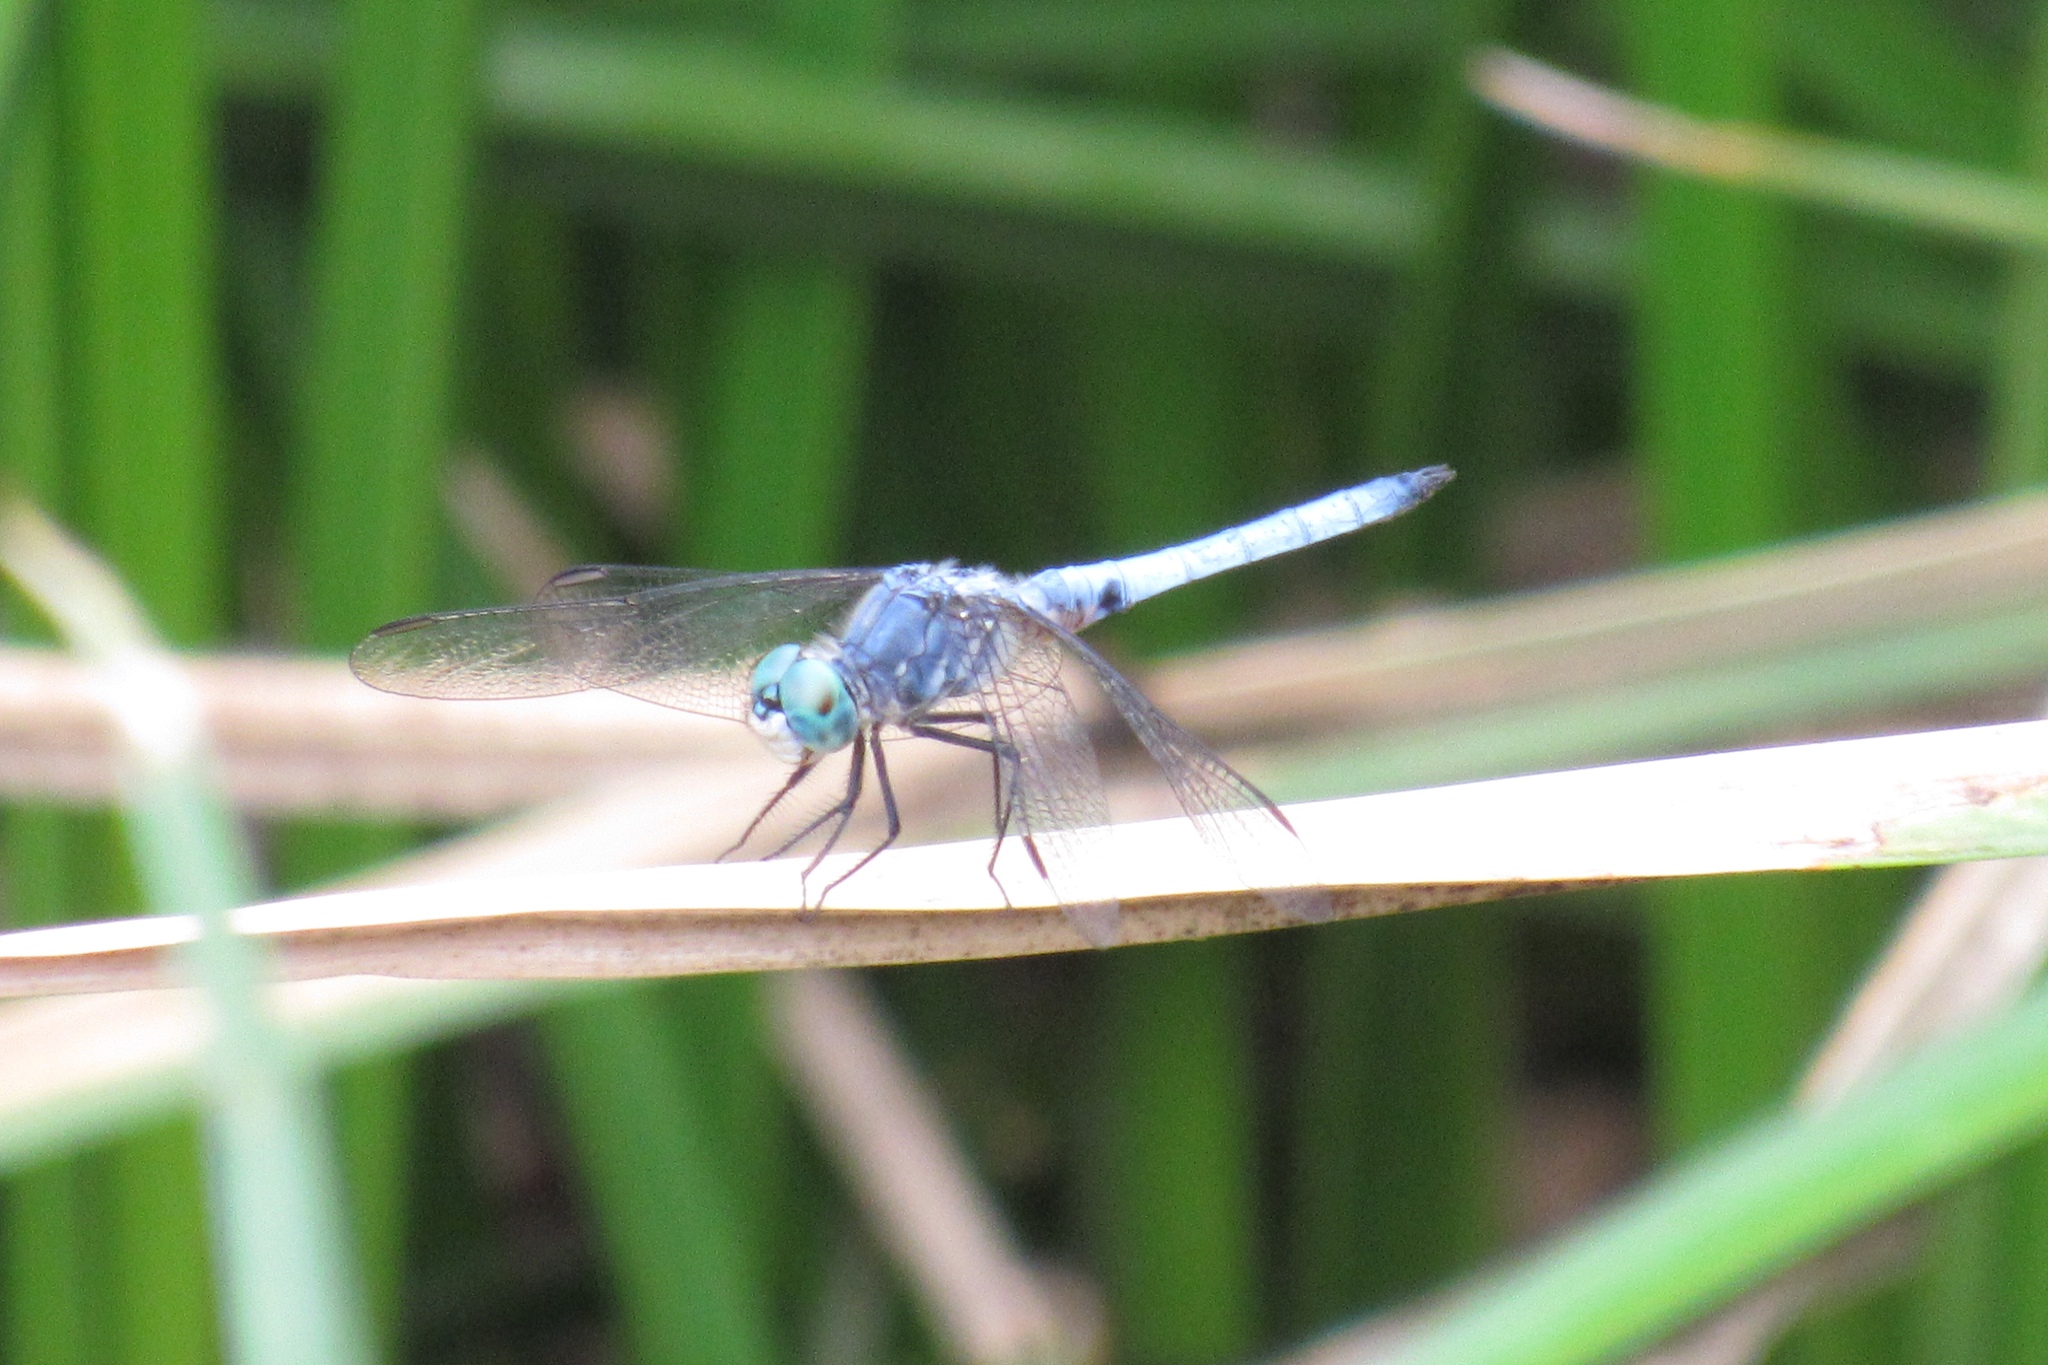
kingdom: Animalia
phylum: Arthropoda
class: Insecta
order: Odonata
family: Libellulidae
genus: Pachydiplax
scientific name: Pachydiplax longipennis
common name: Blue dasher
